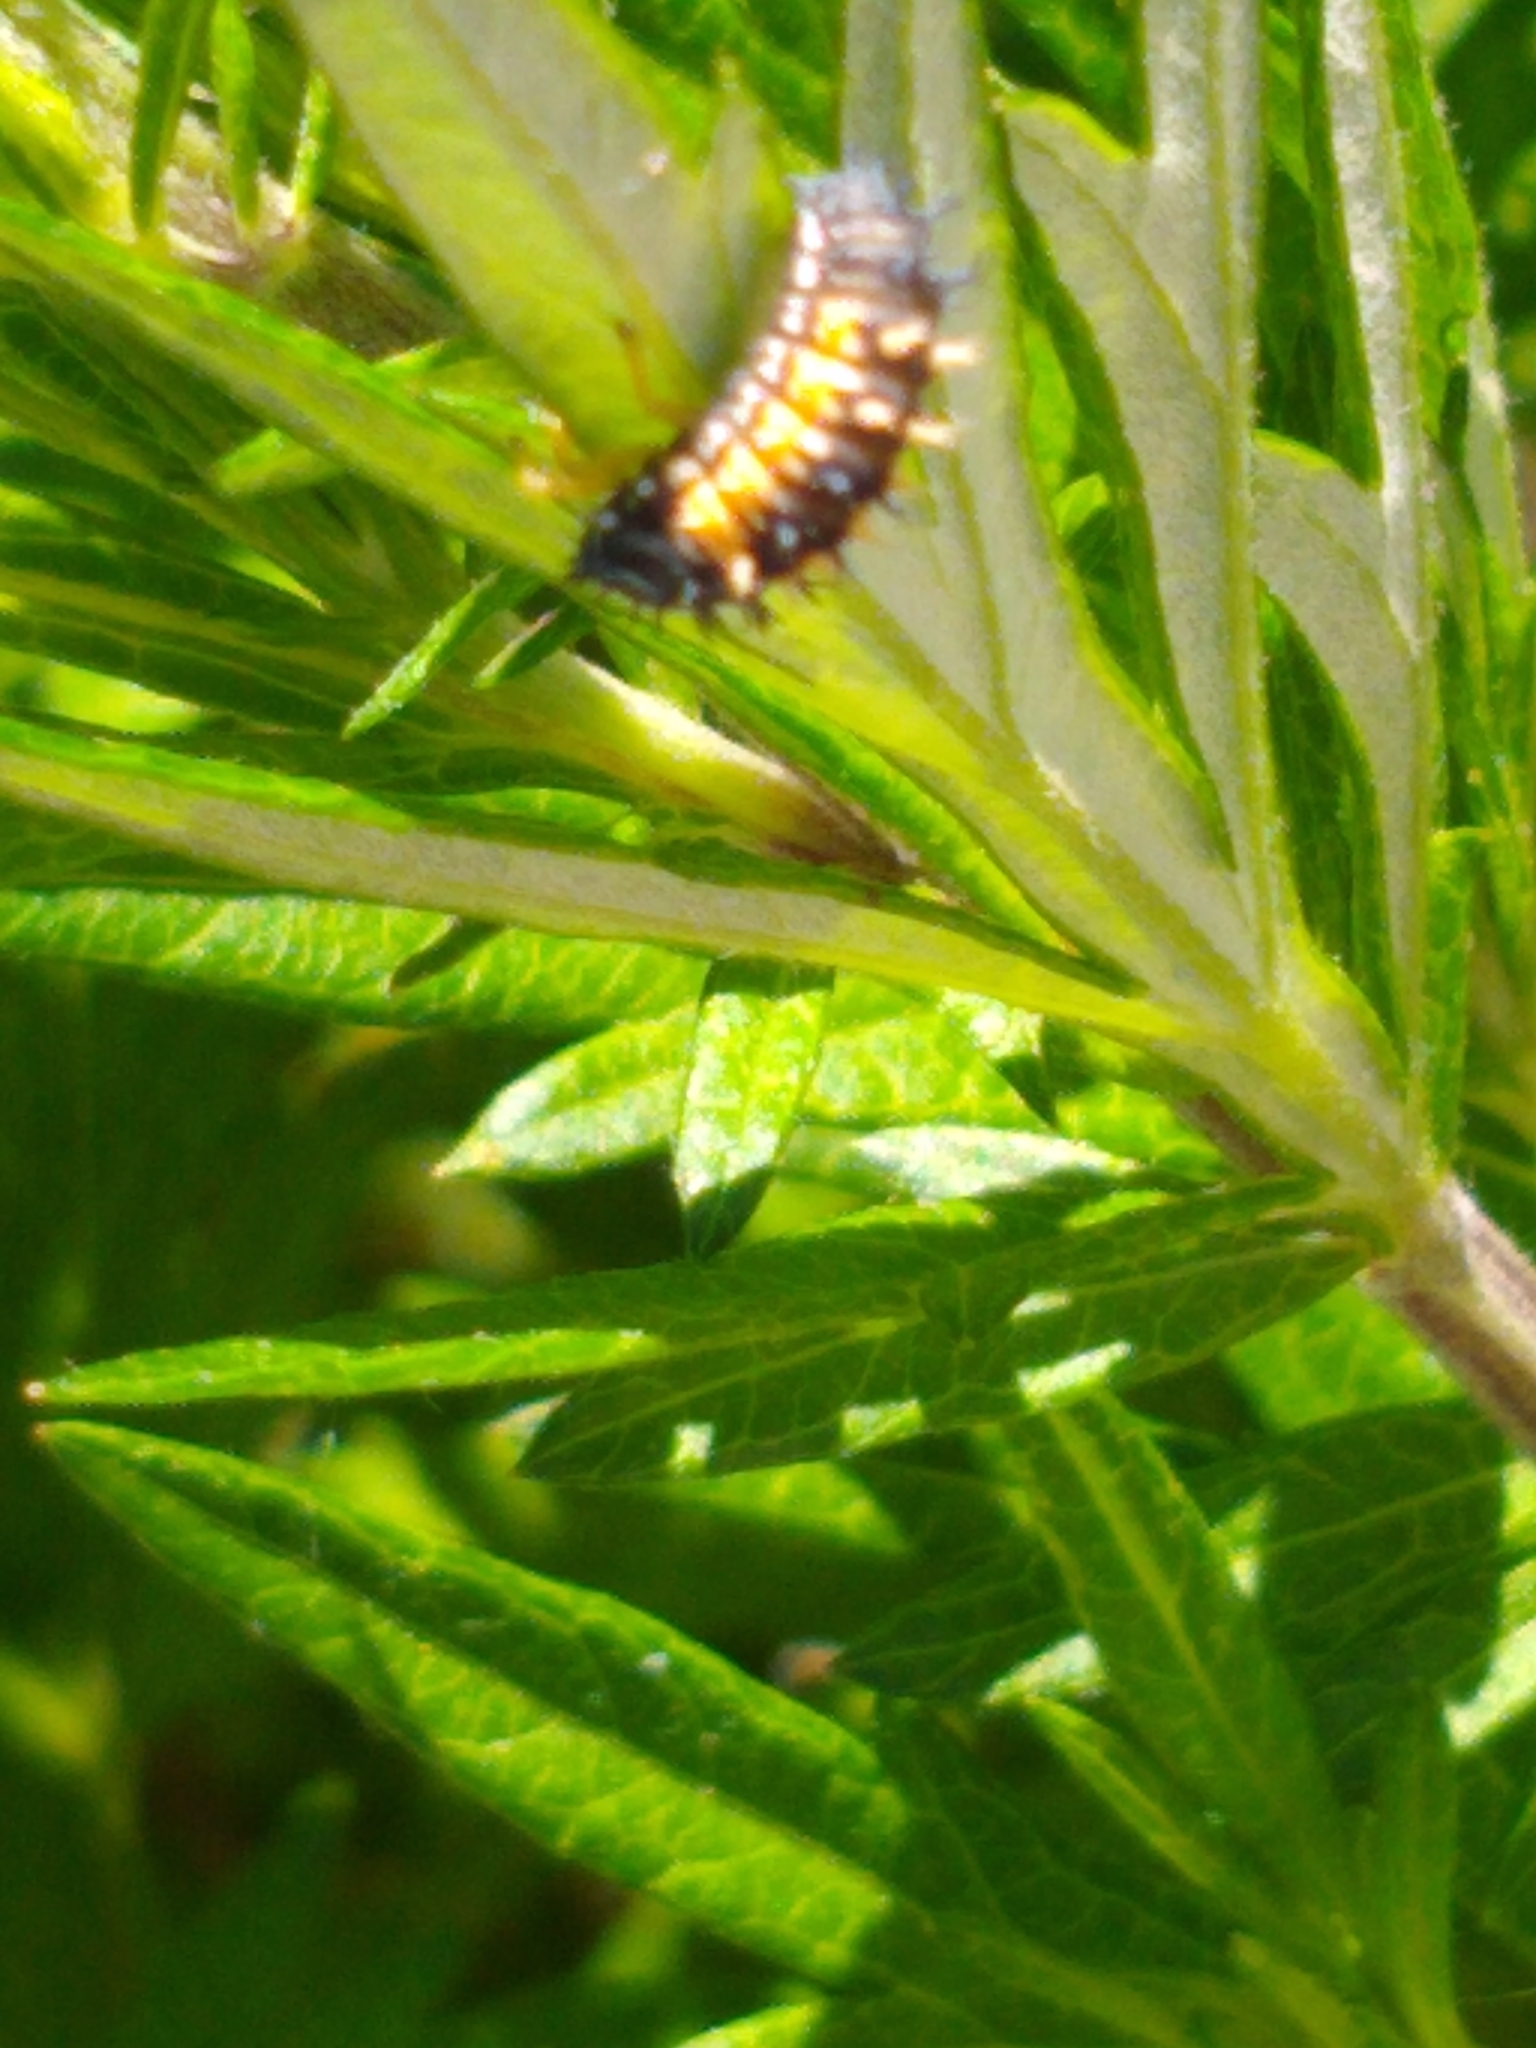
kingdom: Animalia
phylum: Arthropoda
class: Insecta
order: Coleoptera
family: Coccinellidae
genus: Harmonia
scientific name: Harmonia axyridis
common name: Harlequin ladybird
